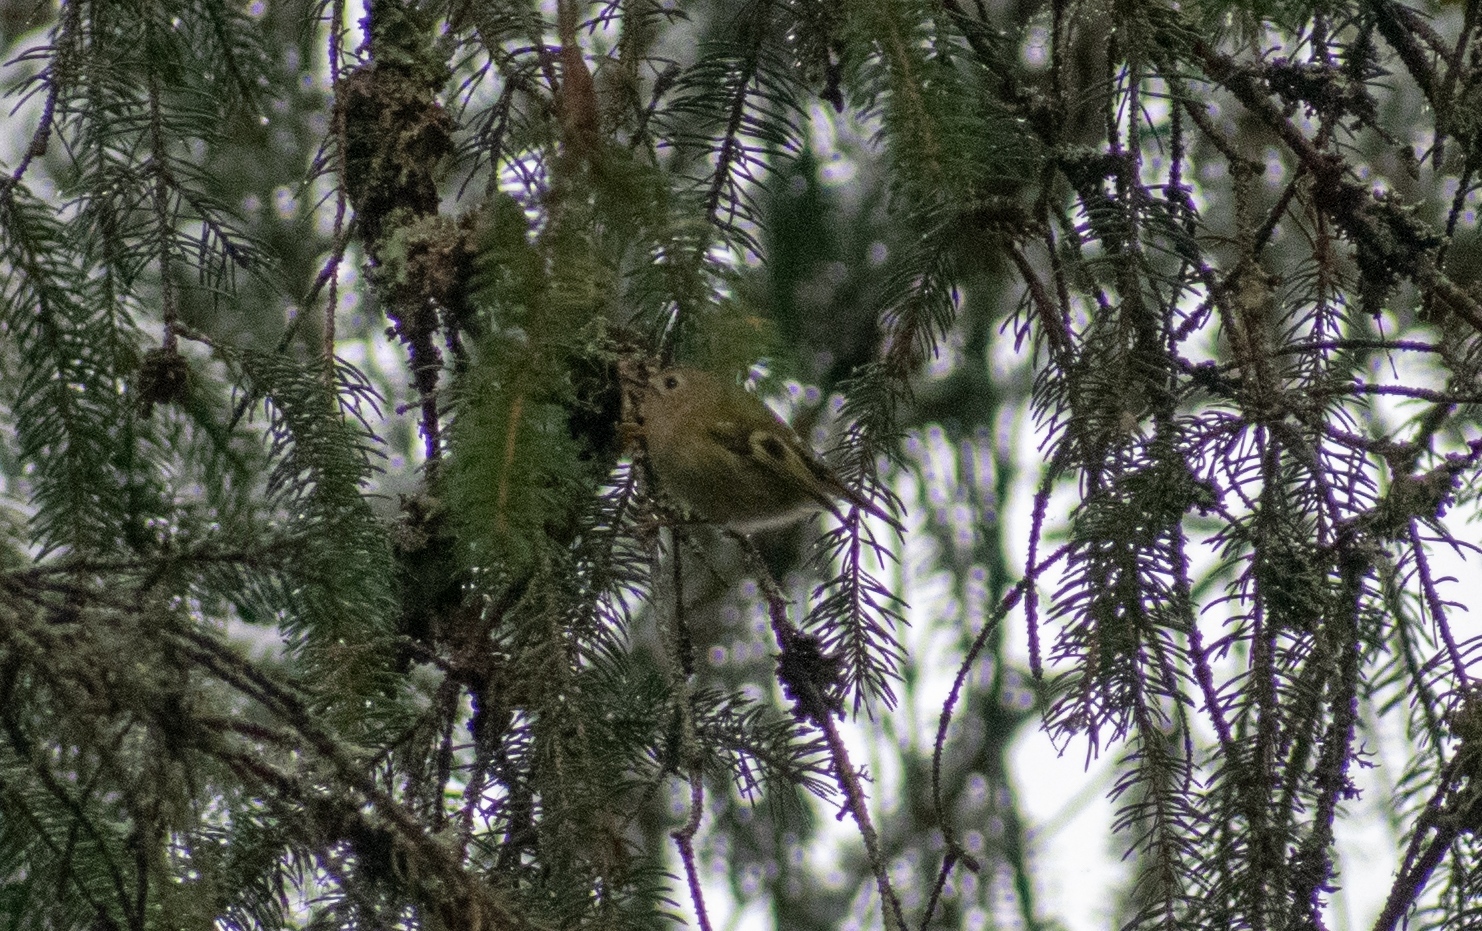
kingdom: Animalia
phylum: Chordata
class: Aves
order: Passeriformes
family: Regulidae
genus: Regulus
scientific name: Regulus regulus
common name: Goldcrest
